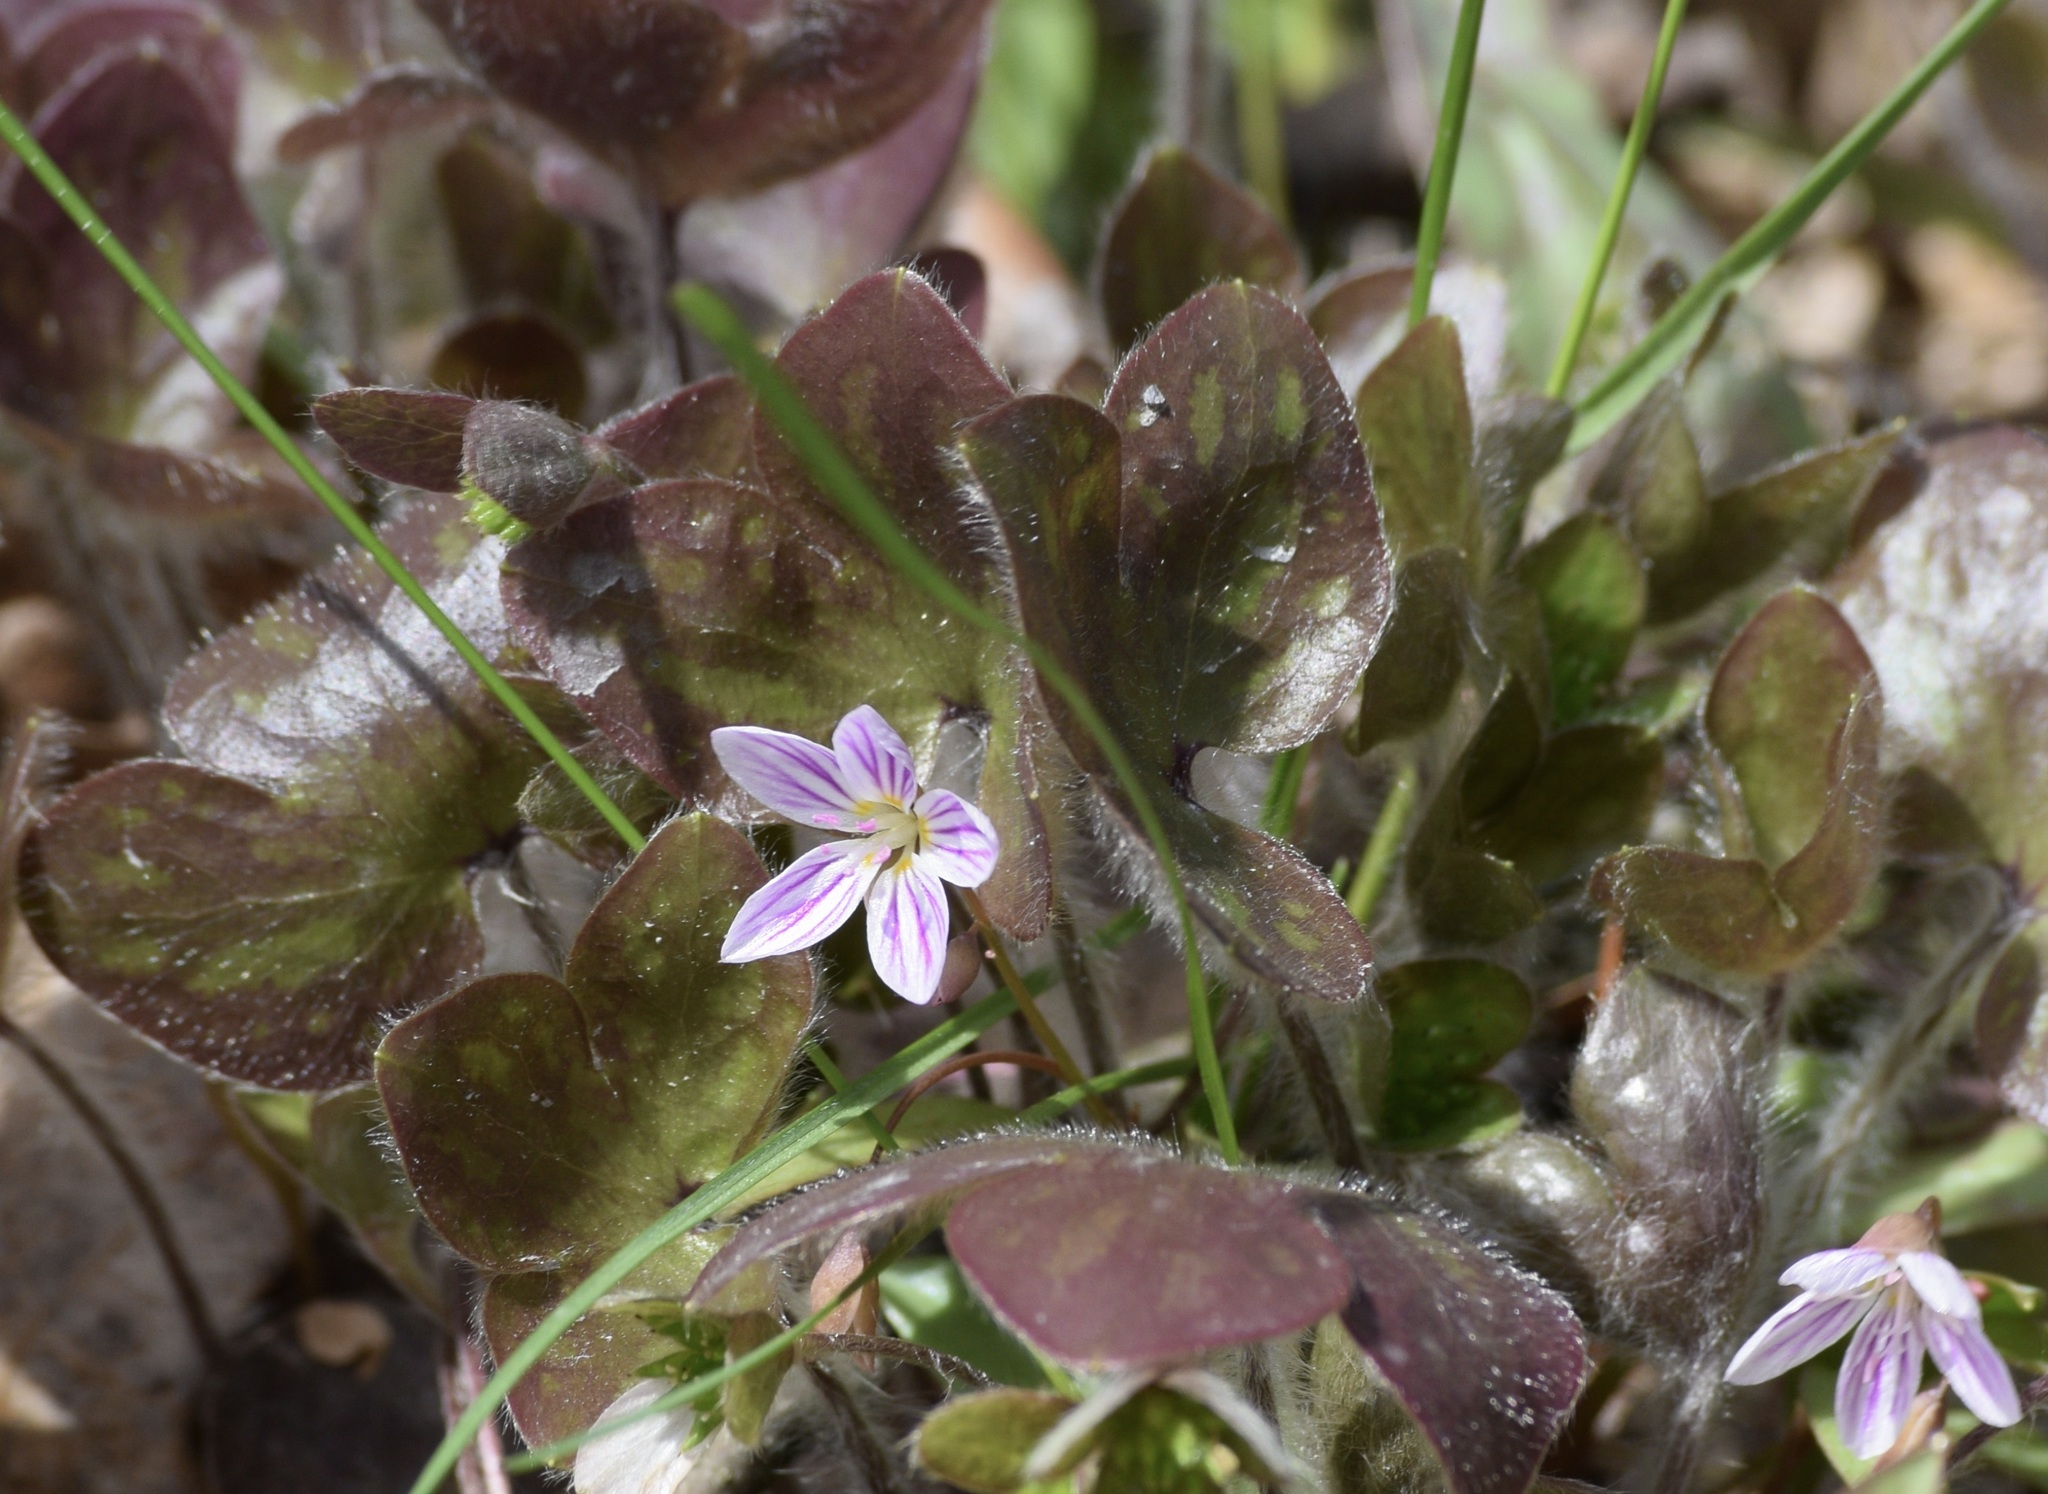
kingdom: Plantae
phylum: Tracheophyta
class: Magnoliopsida
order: Ranunculales
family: Ranunculaceae
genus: Hepatica
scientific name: Hepatica americana
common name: American hepatica
